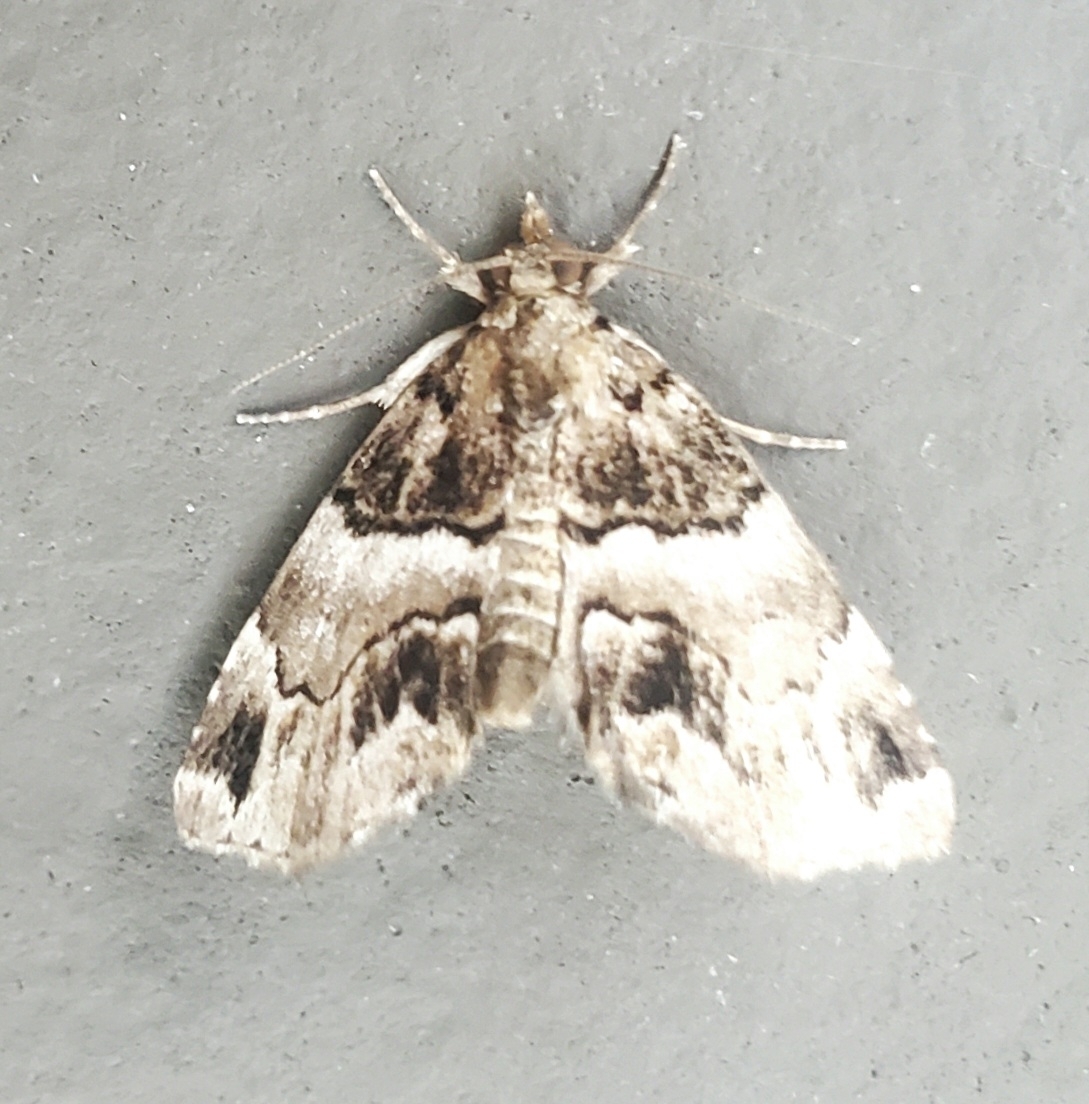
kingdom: Animalia
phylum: Arthropoda
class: Insecta
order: Lepidoptera
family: Erebidae
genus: Cutina
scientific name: Cutina distincta
